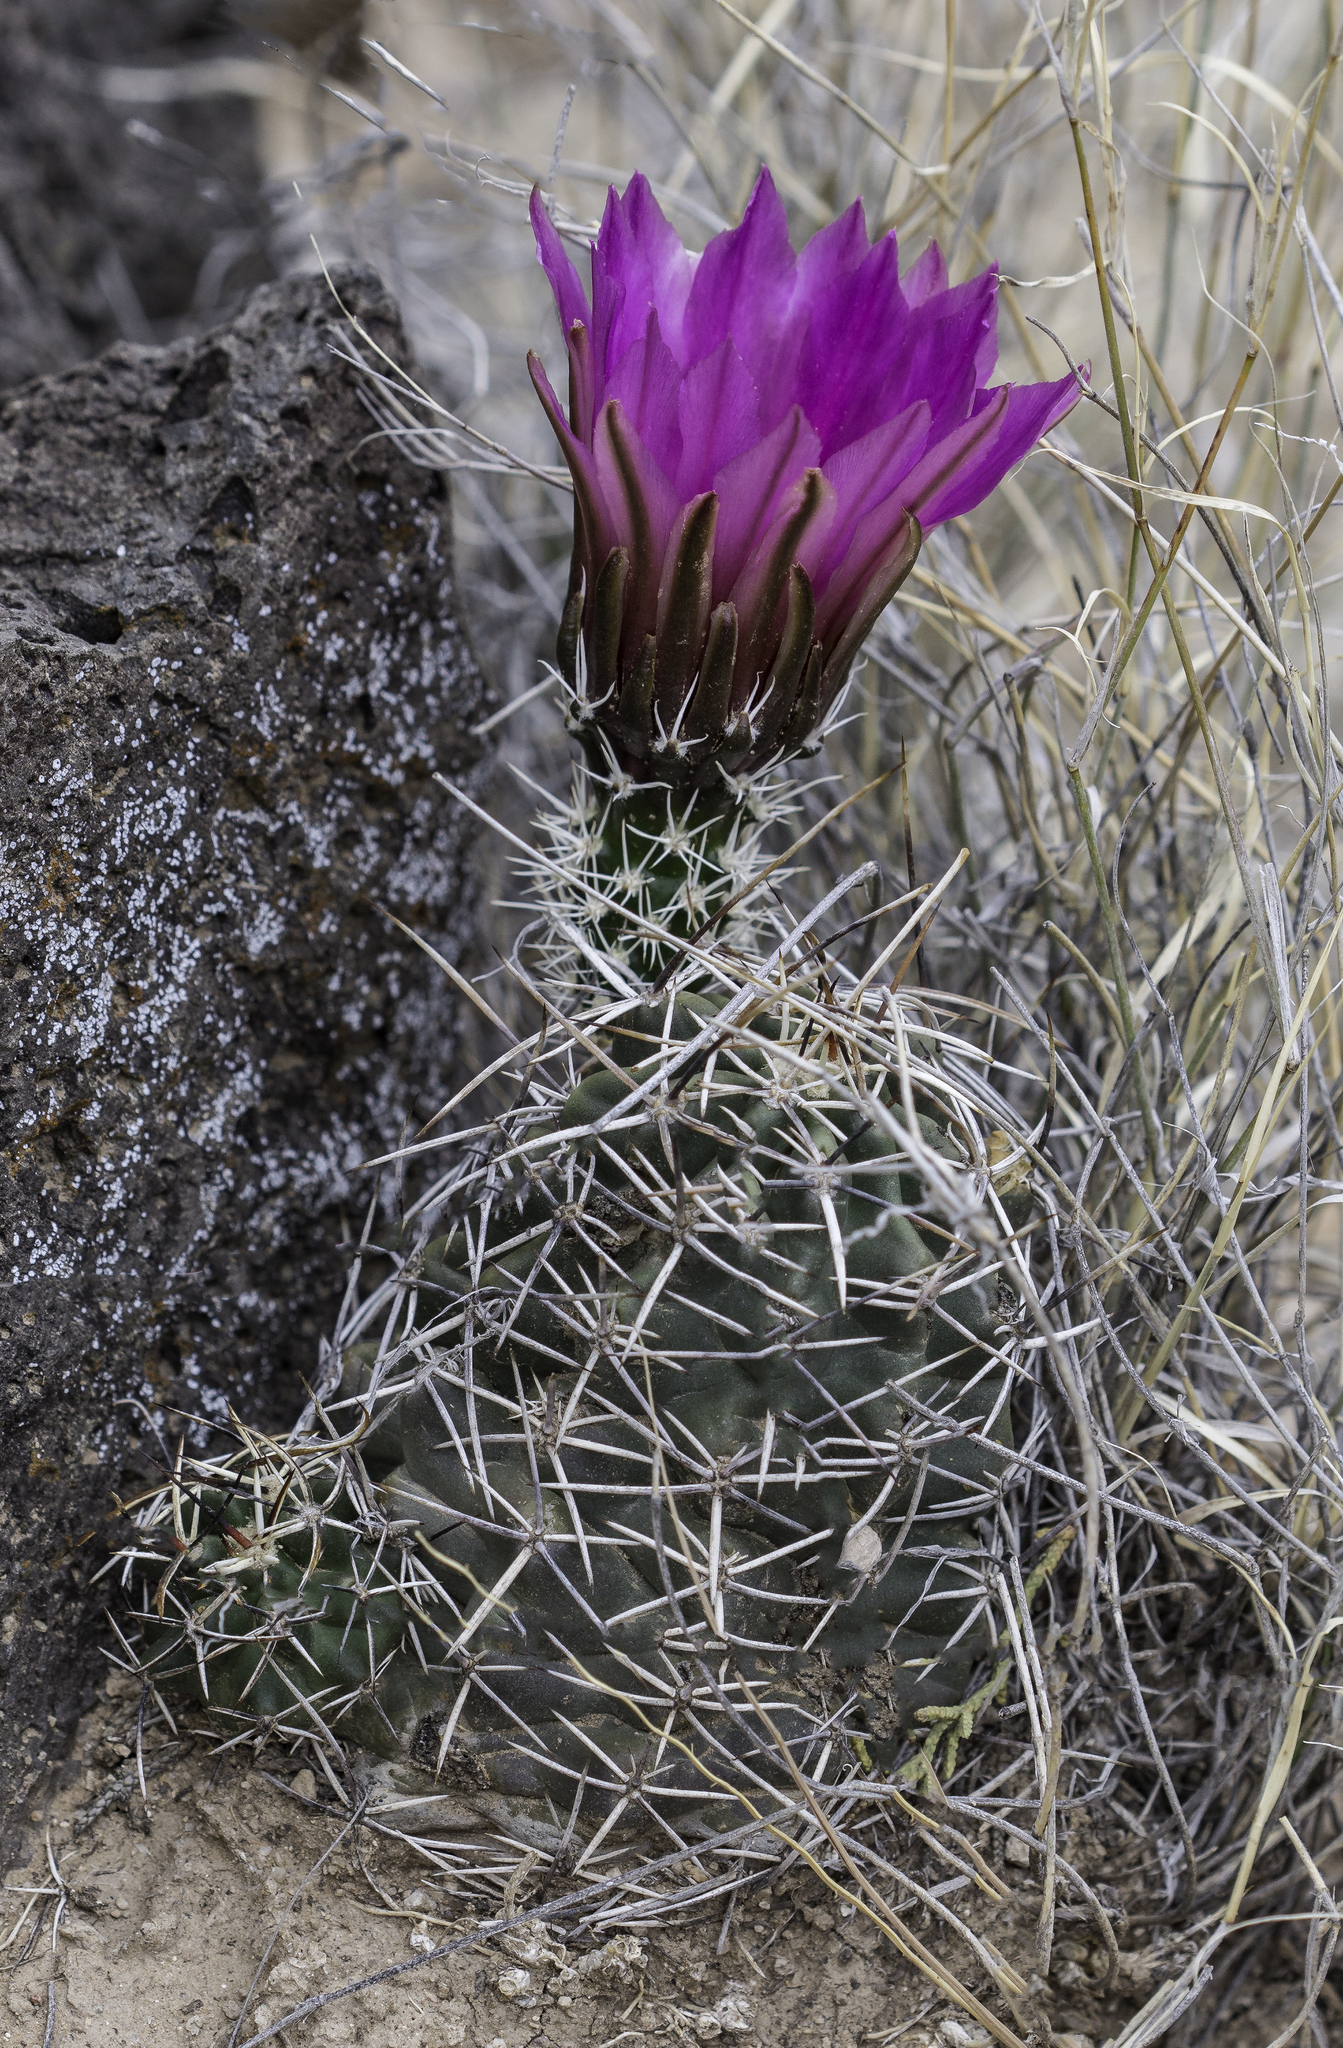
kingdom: Plantae
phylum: Tracheophyta
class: Magnoliopsida
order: Caryophyllales
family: Cactaceae
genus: Echinocereus
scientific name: Echinocereus fendleri
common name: Fendler's hedgehog cactus
